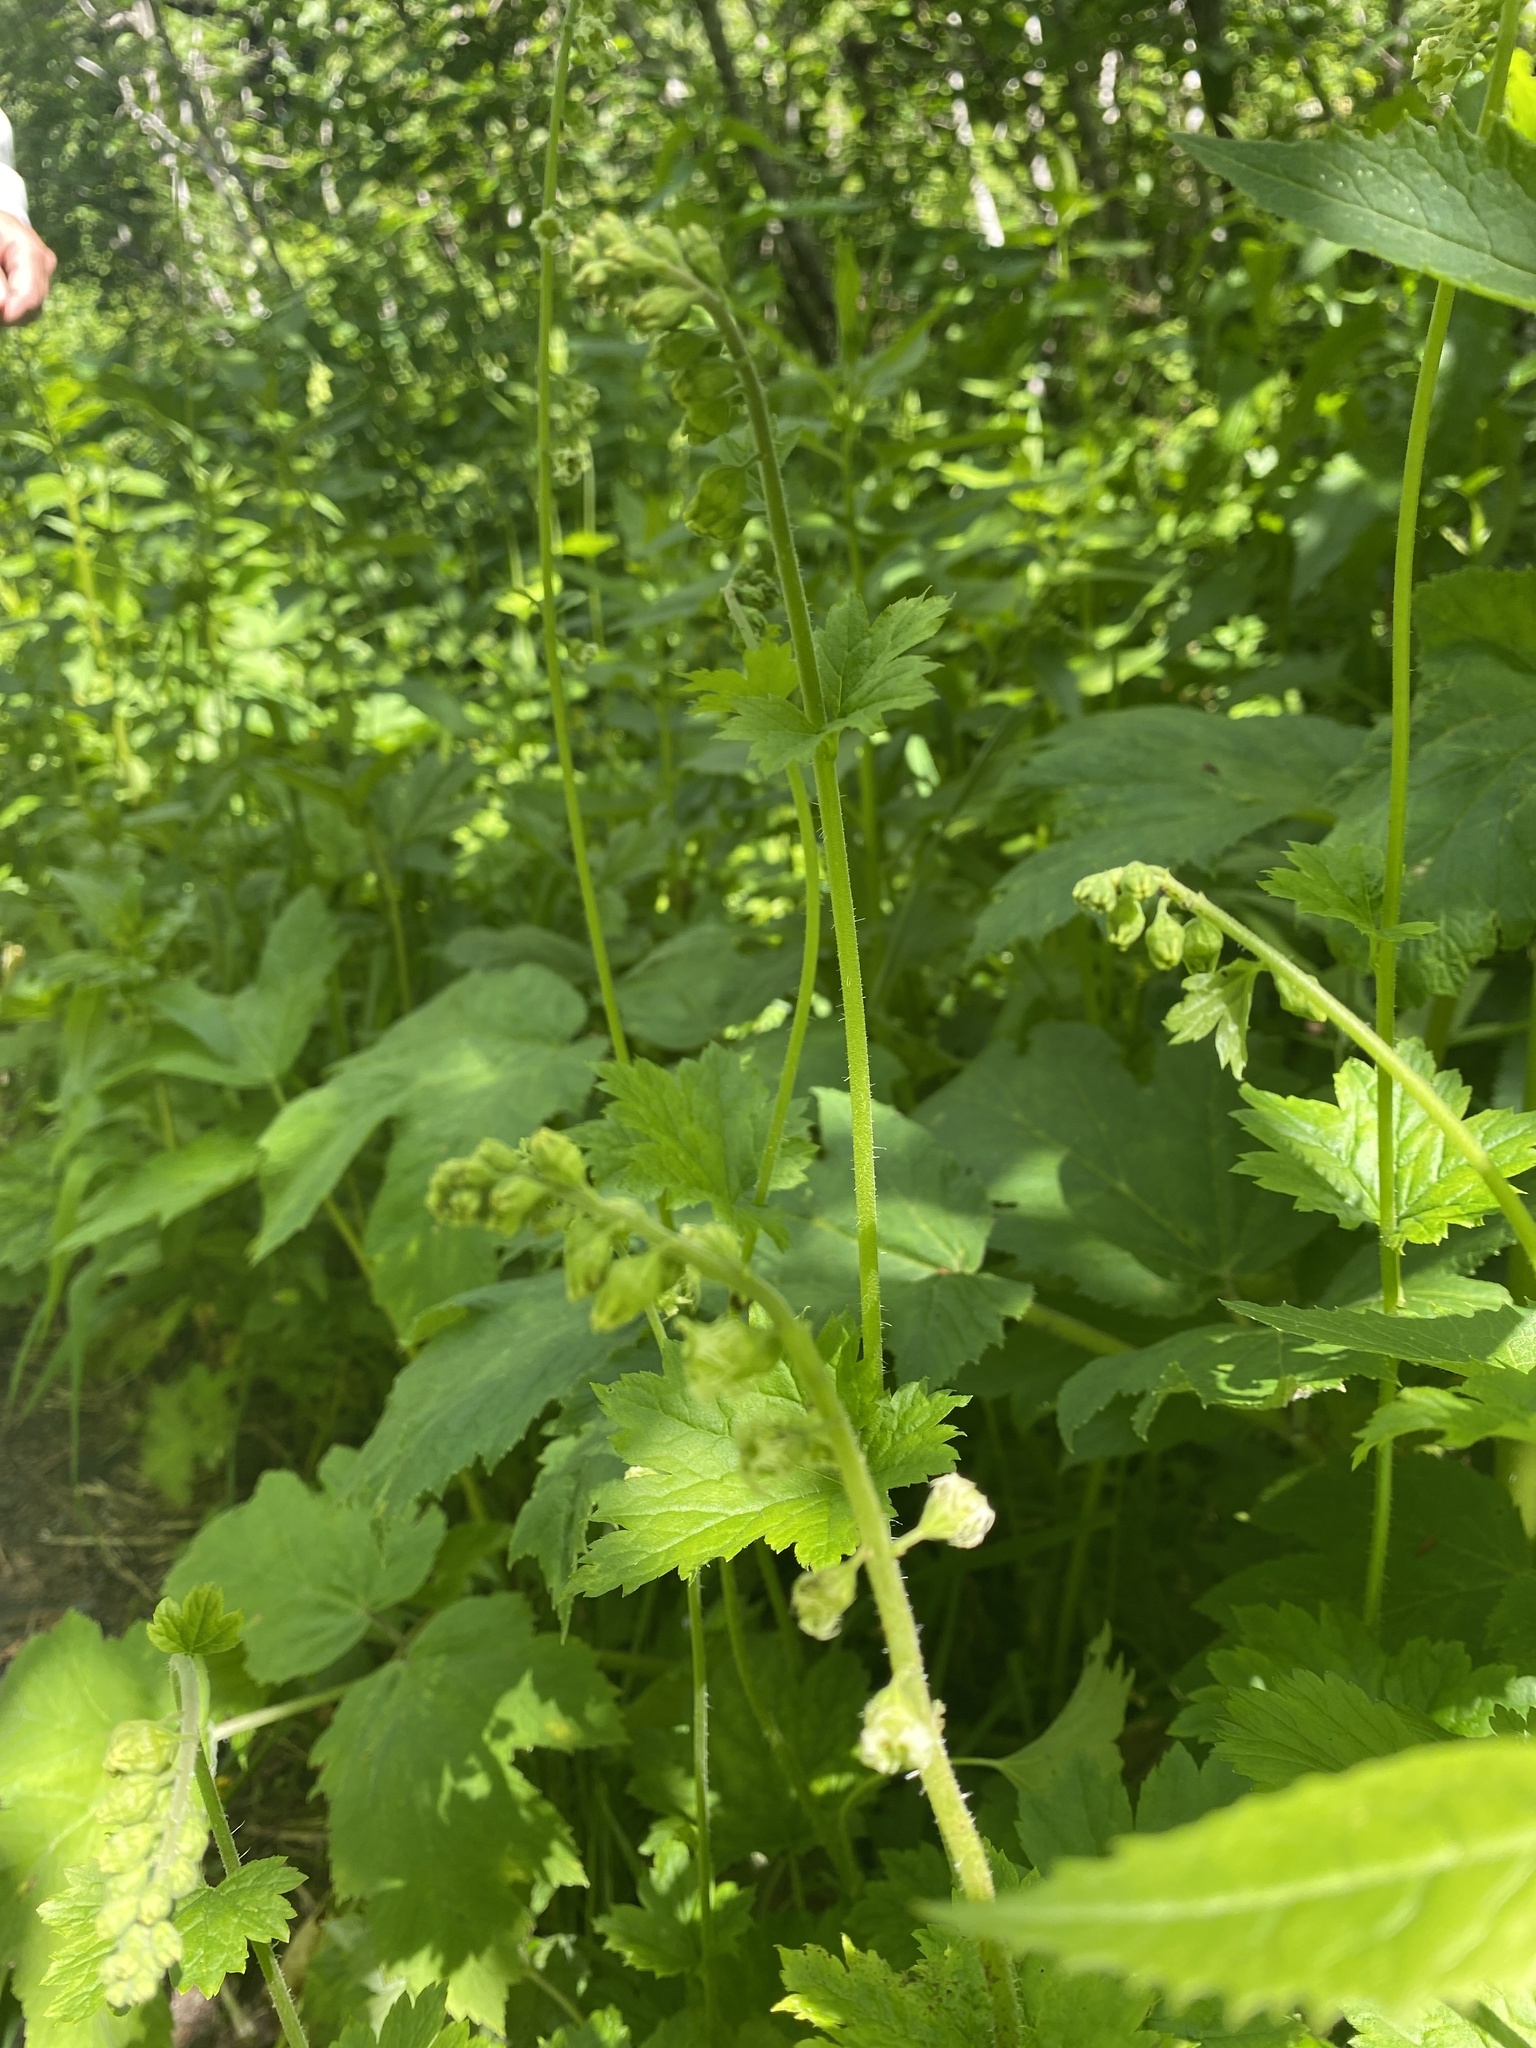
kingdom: Plantae
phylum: Tracheophyta
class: Magnoliopsida
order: Saxifragales
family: Saxifragaceae
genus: Tellima
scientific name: Tellima grandiflora
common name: Fringecups
